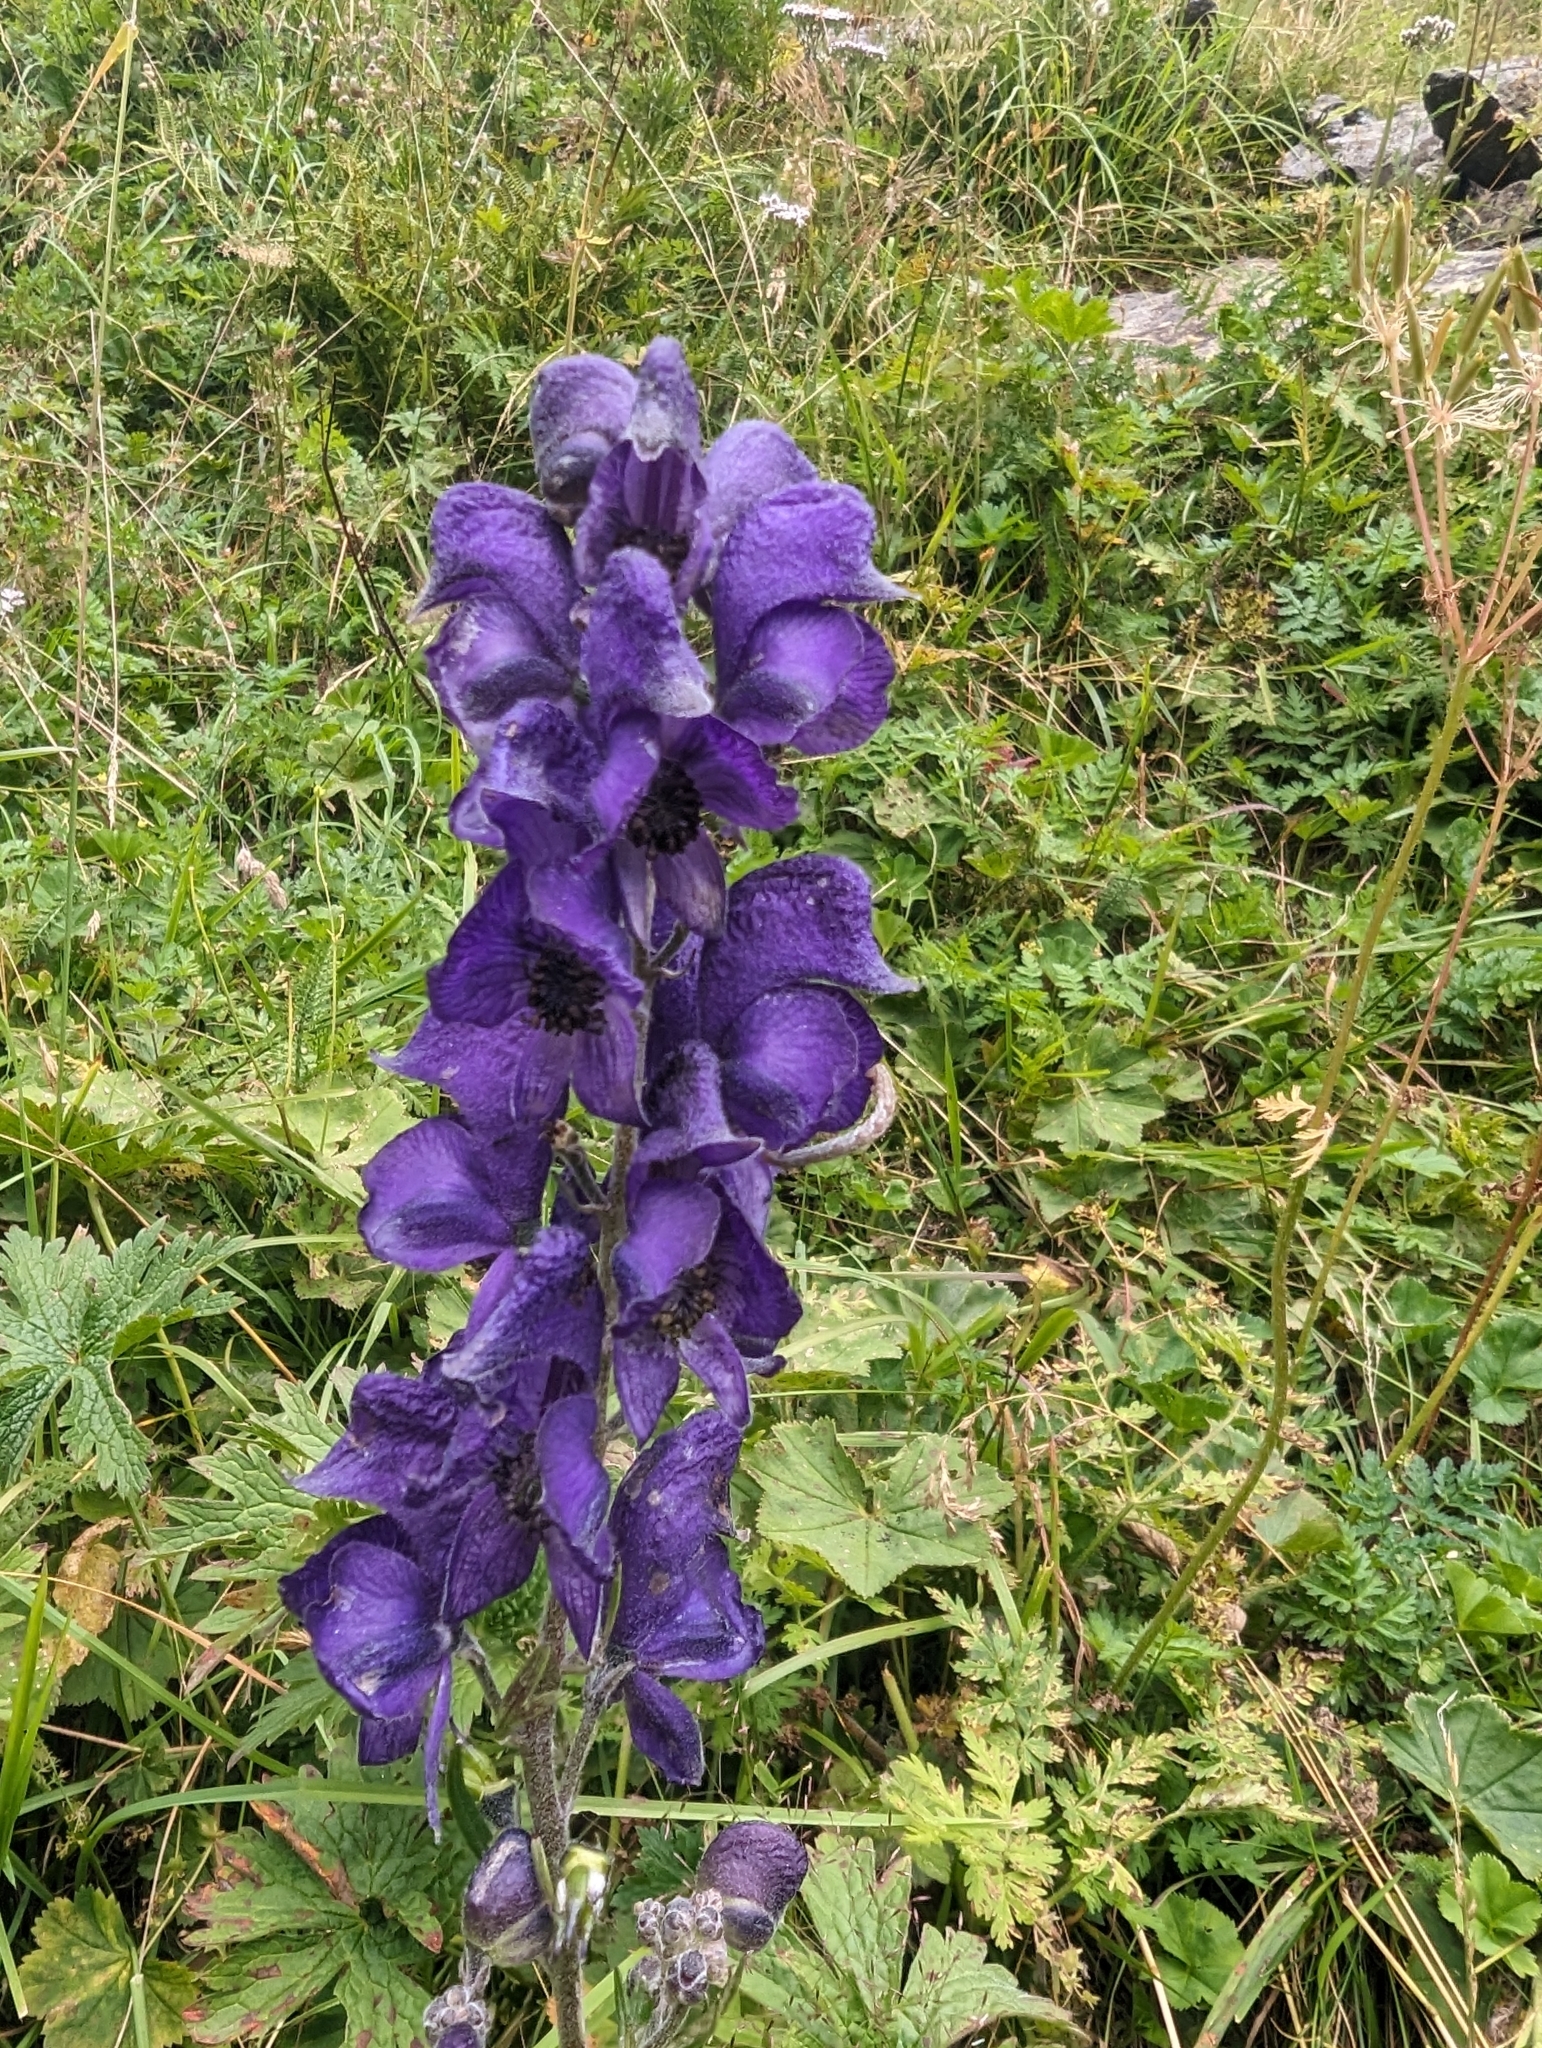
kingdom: Plantae
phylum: Tracheophyta
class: Magnoliopsida
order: Ranunculales
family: Ranunculaceae
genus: Aconitum
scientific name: Aconitum napellus
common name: Garden monkshood
